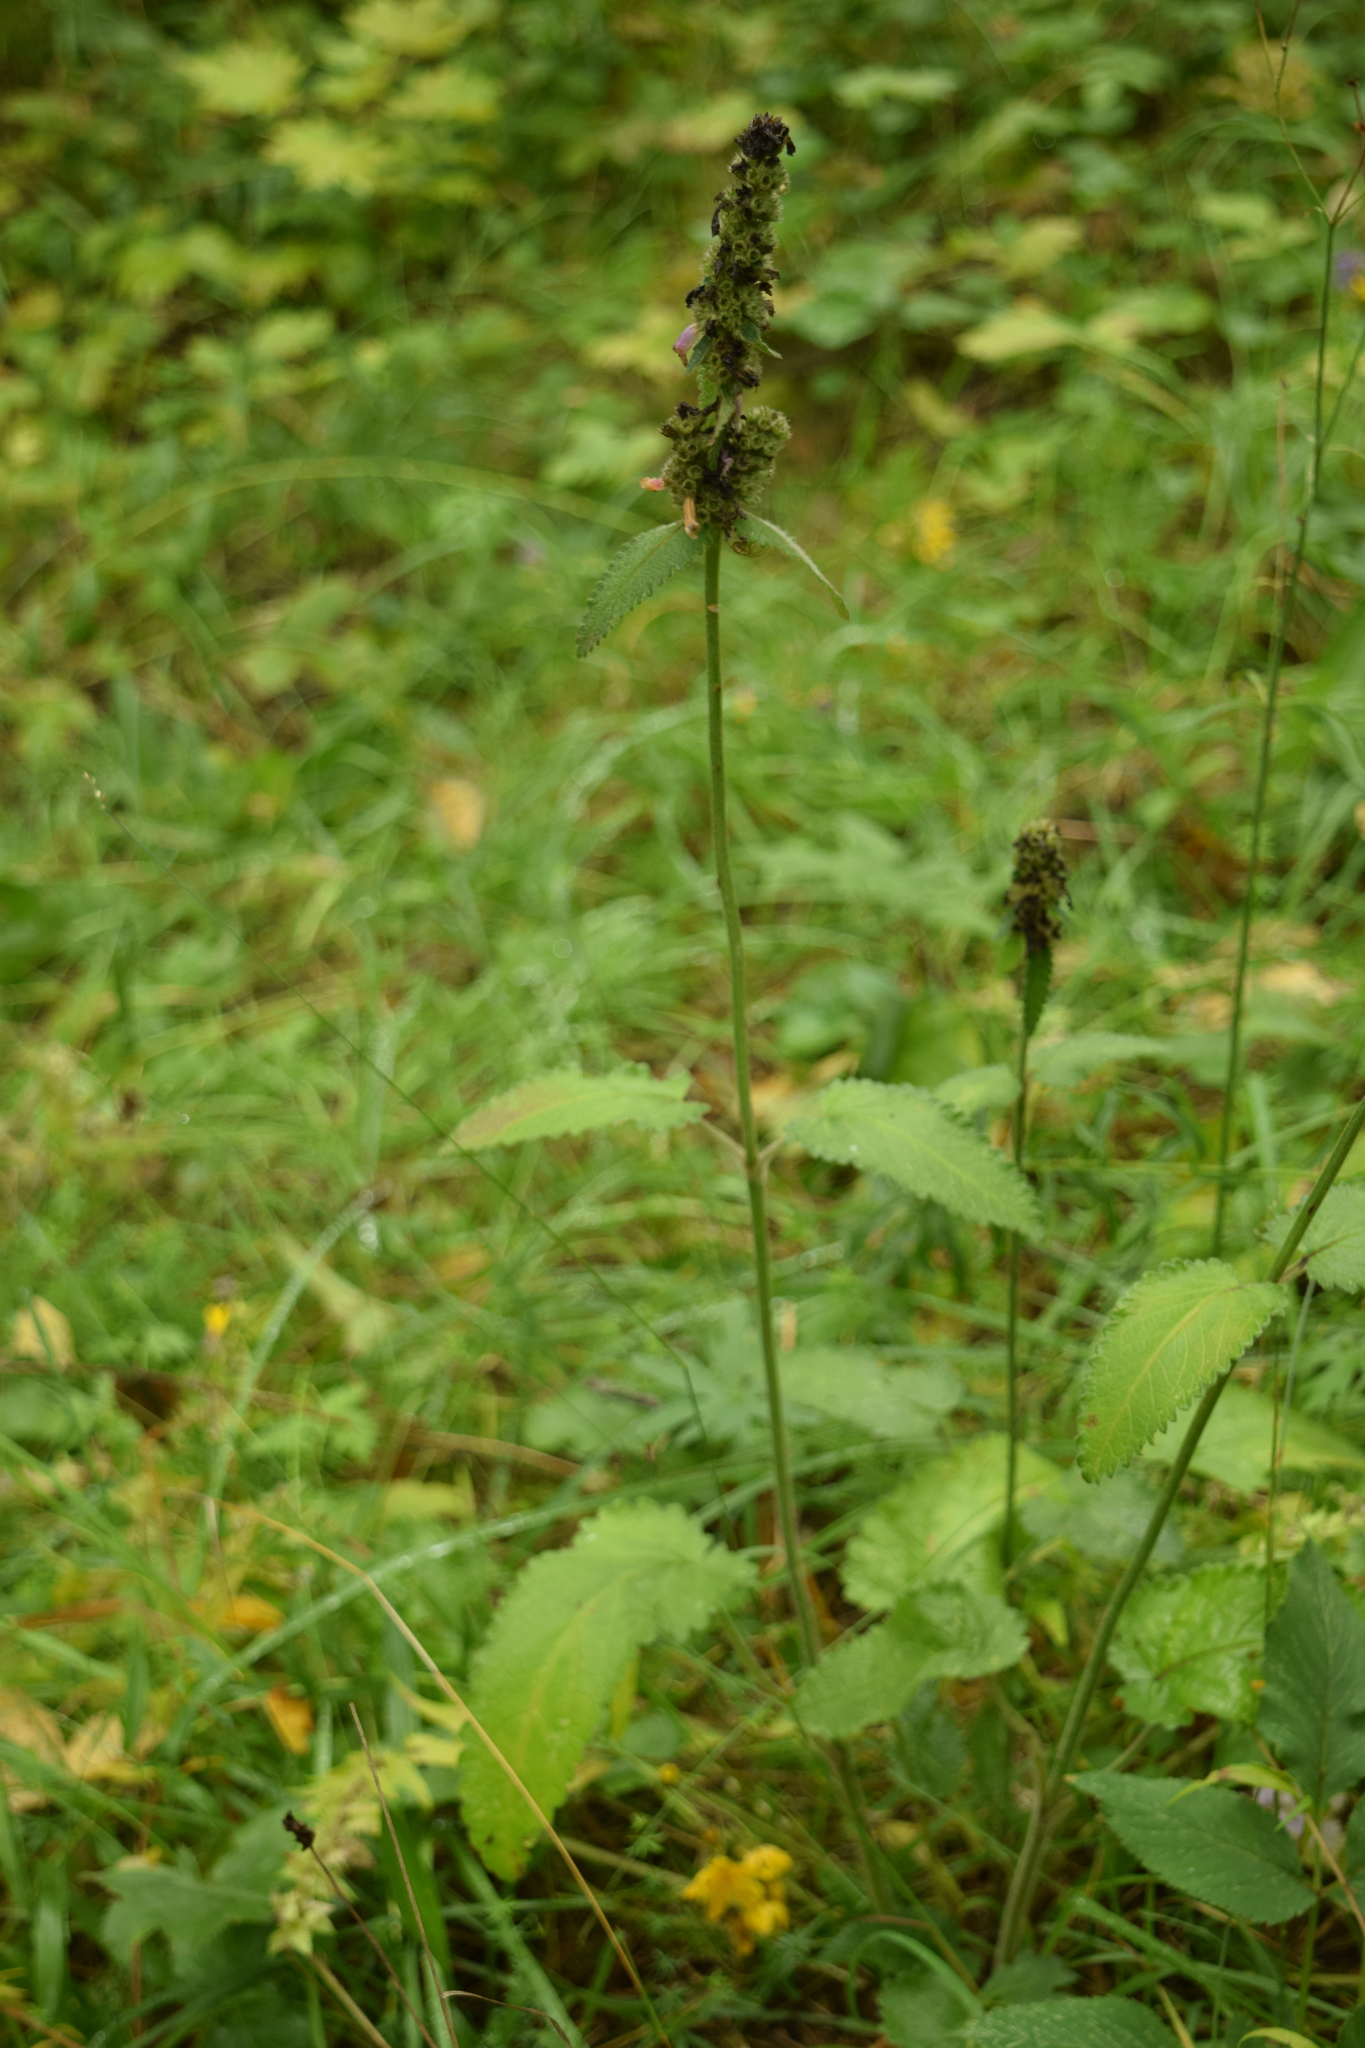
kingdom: Plantae
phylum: Tracheophyta
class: Magnoliopsida
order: Lamiales
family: Lamiaceae
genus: Betonica
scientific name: Betonica officinalis
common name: Bishop's-wort
